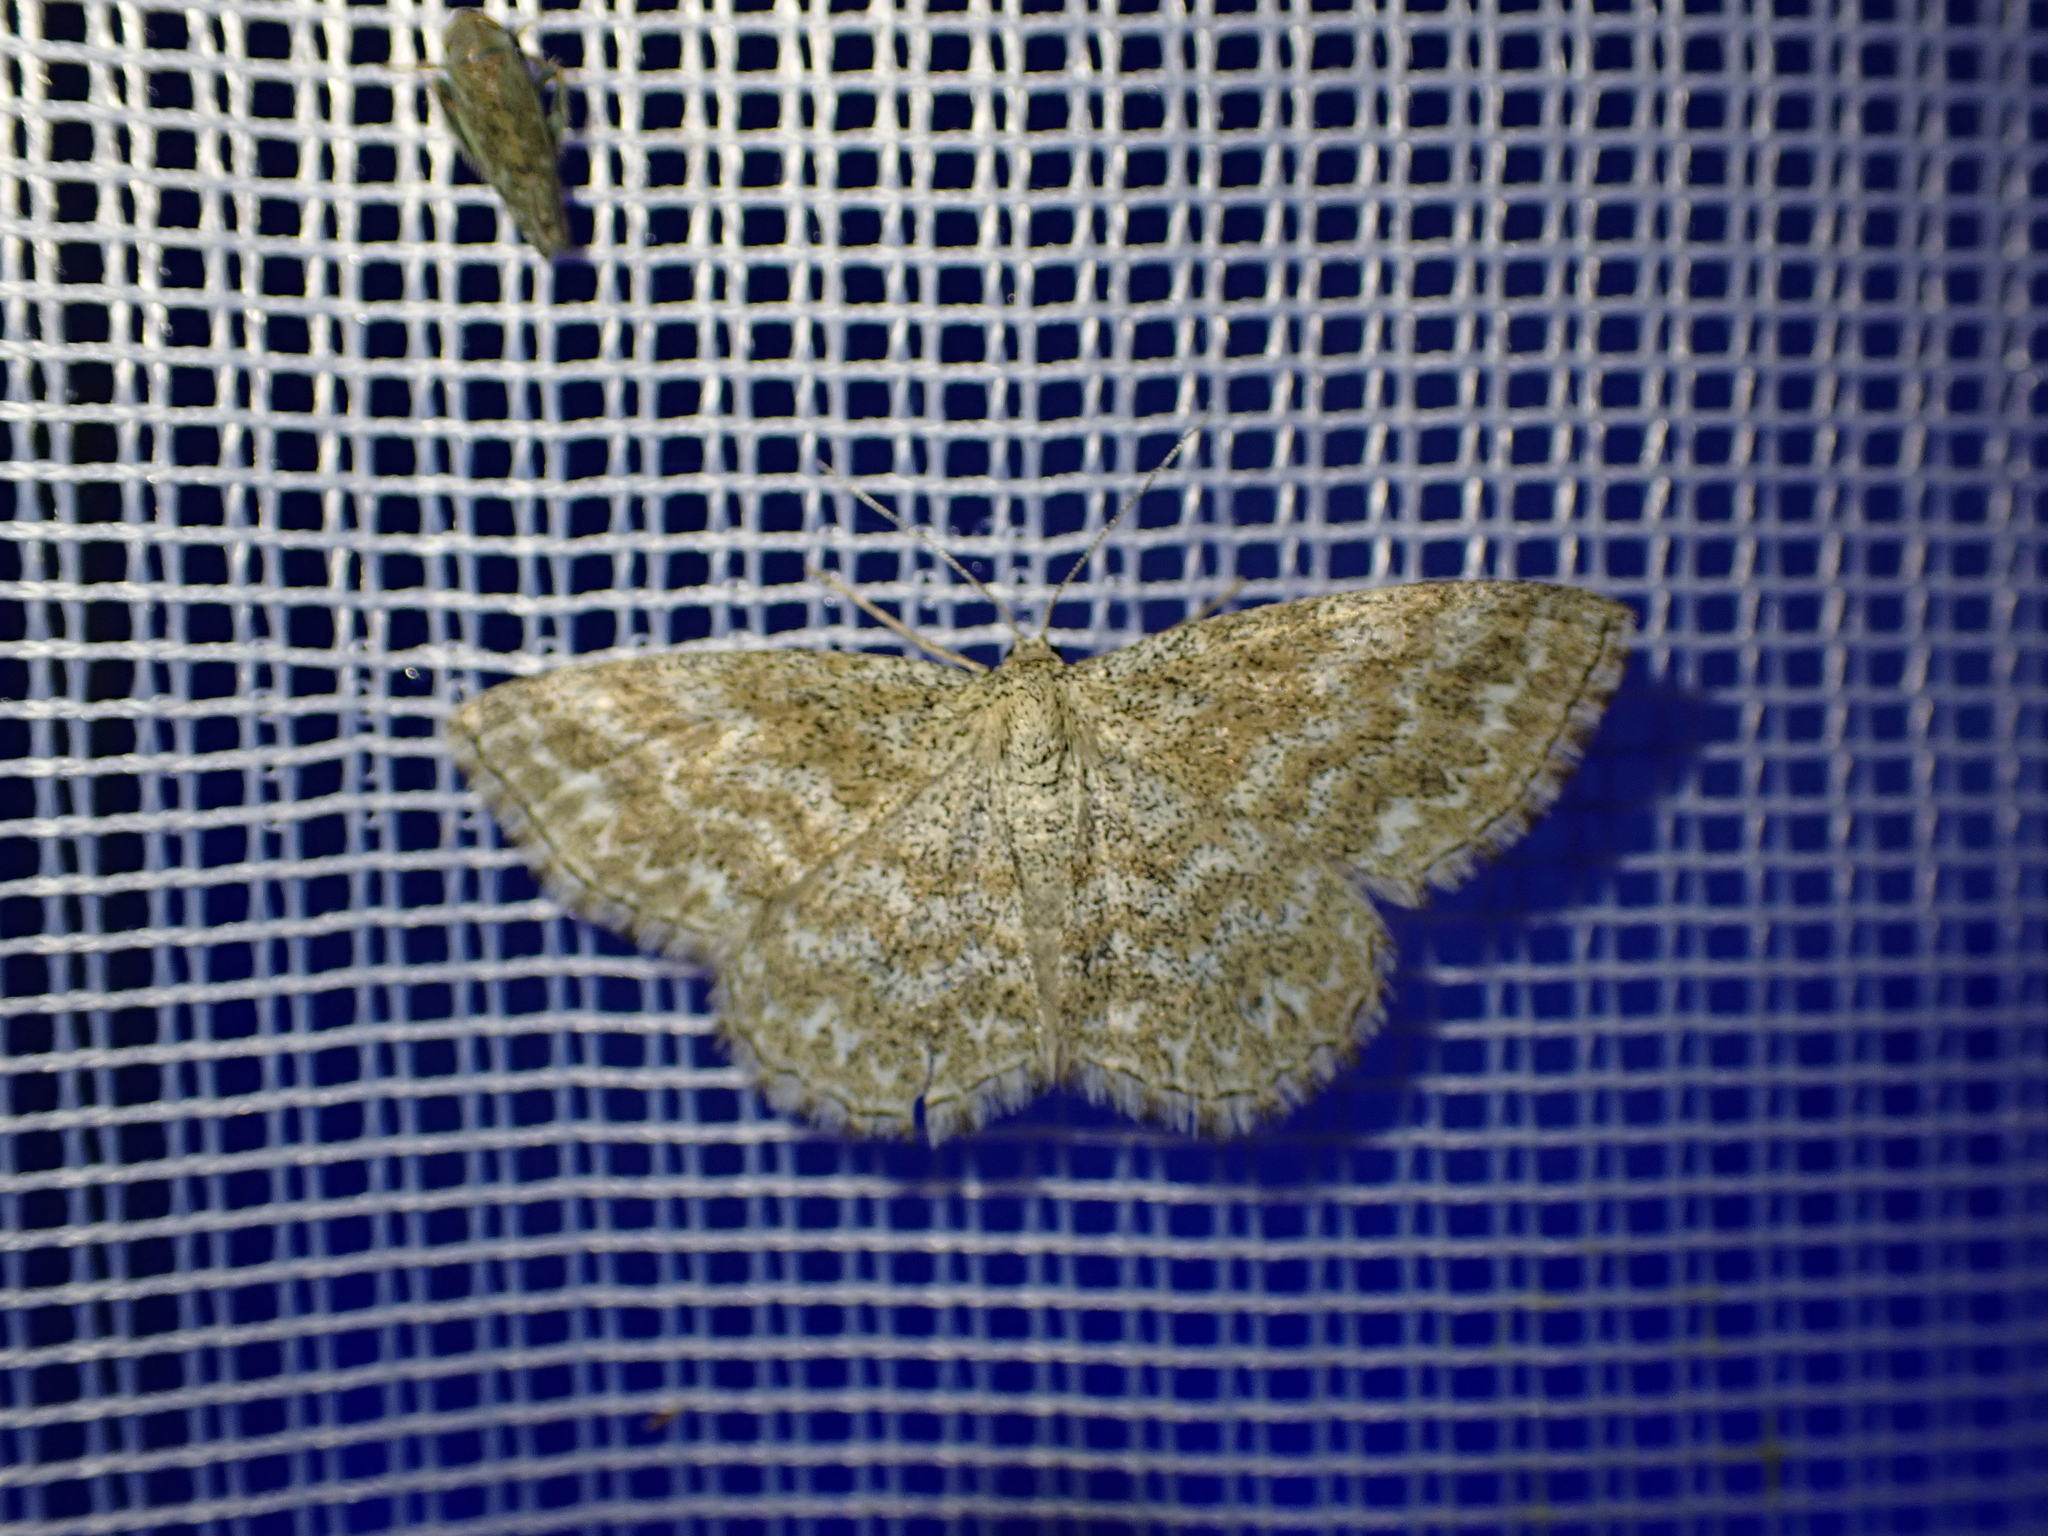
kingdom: Animalia
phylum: Arthropoda
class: Insecta
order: Lepidoptera
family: Geometridae
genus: Scopula
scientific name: Scopula immorata
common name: Lewes wave
